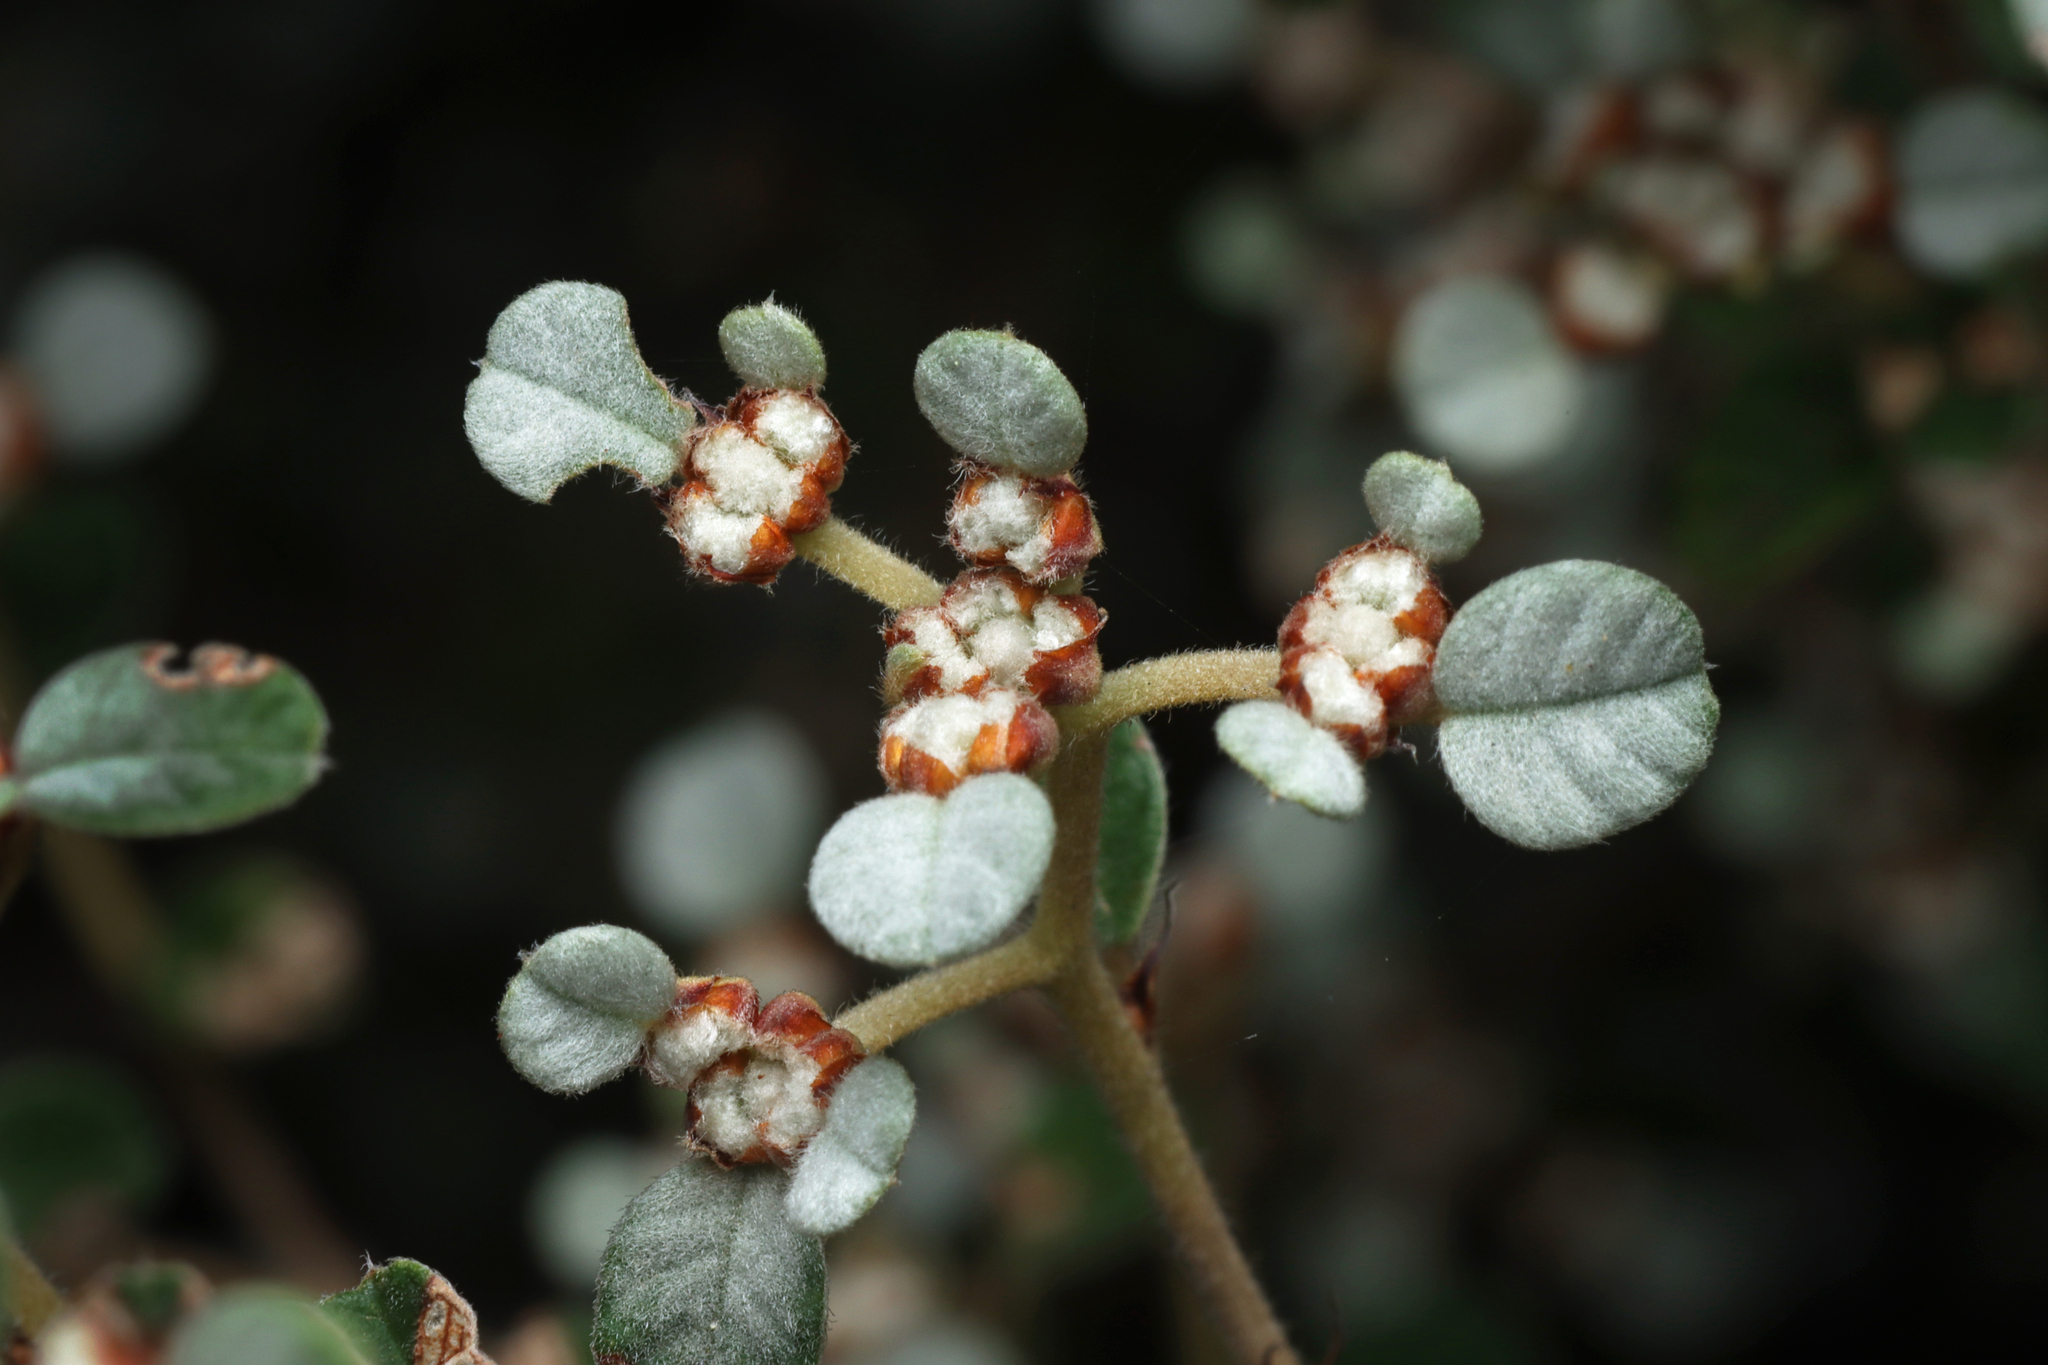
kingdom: Plantae
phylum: Tracheophyta
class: Magnoliopsida
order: Rosales
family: Rhamnaceae
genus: Spyridium
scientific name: Spyridium parvifolium
